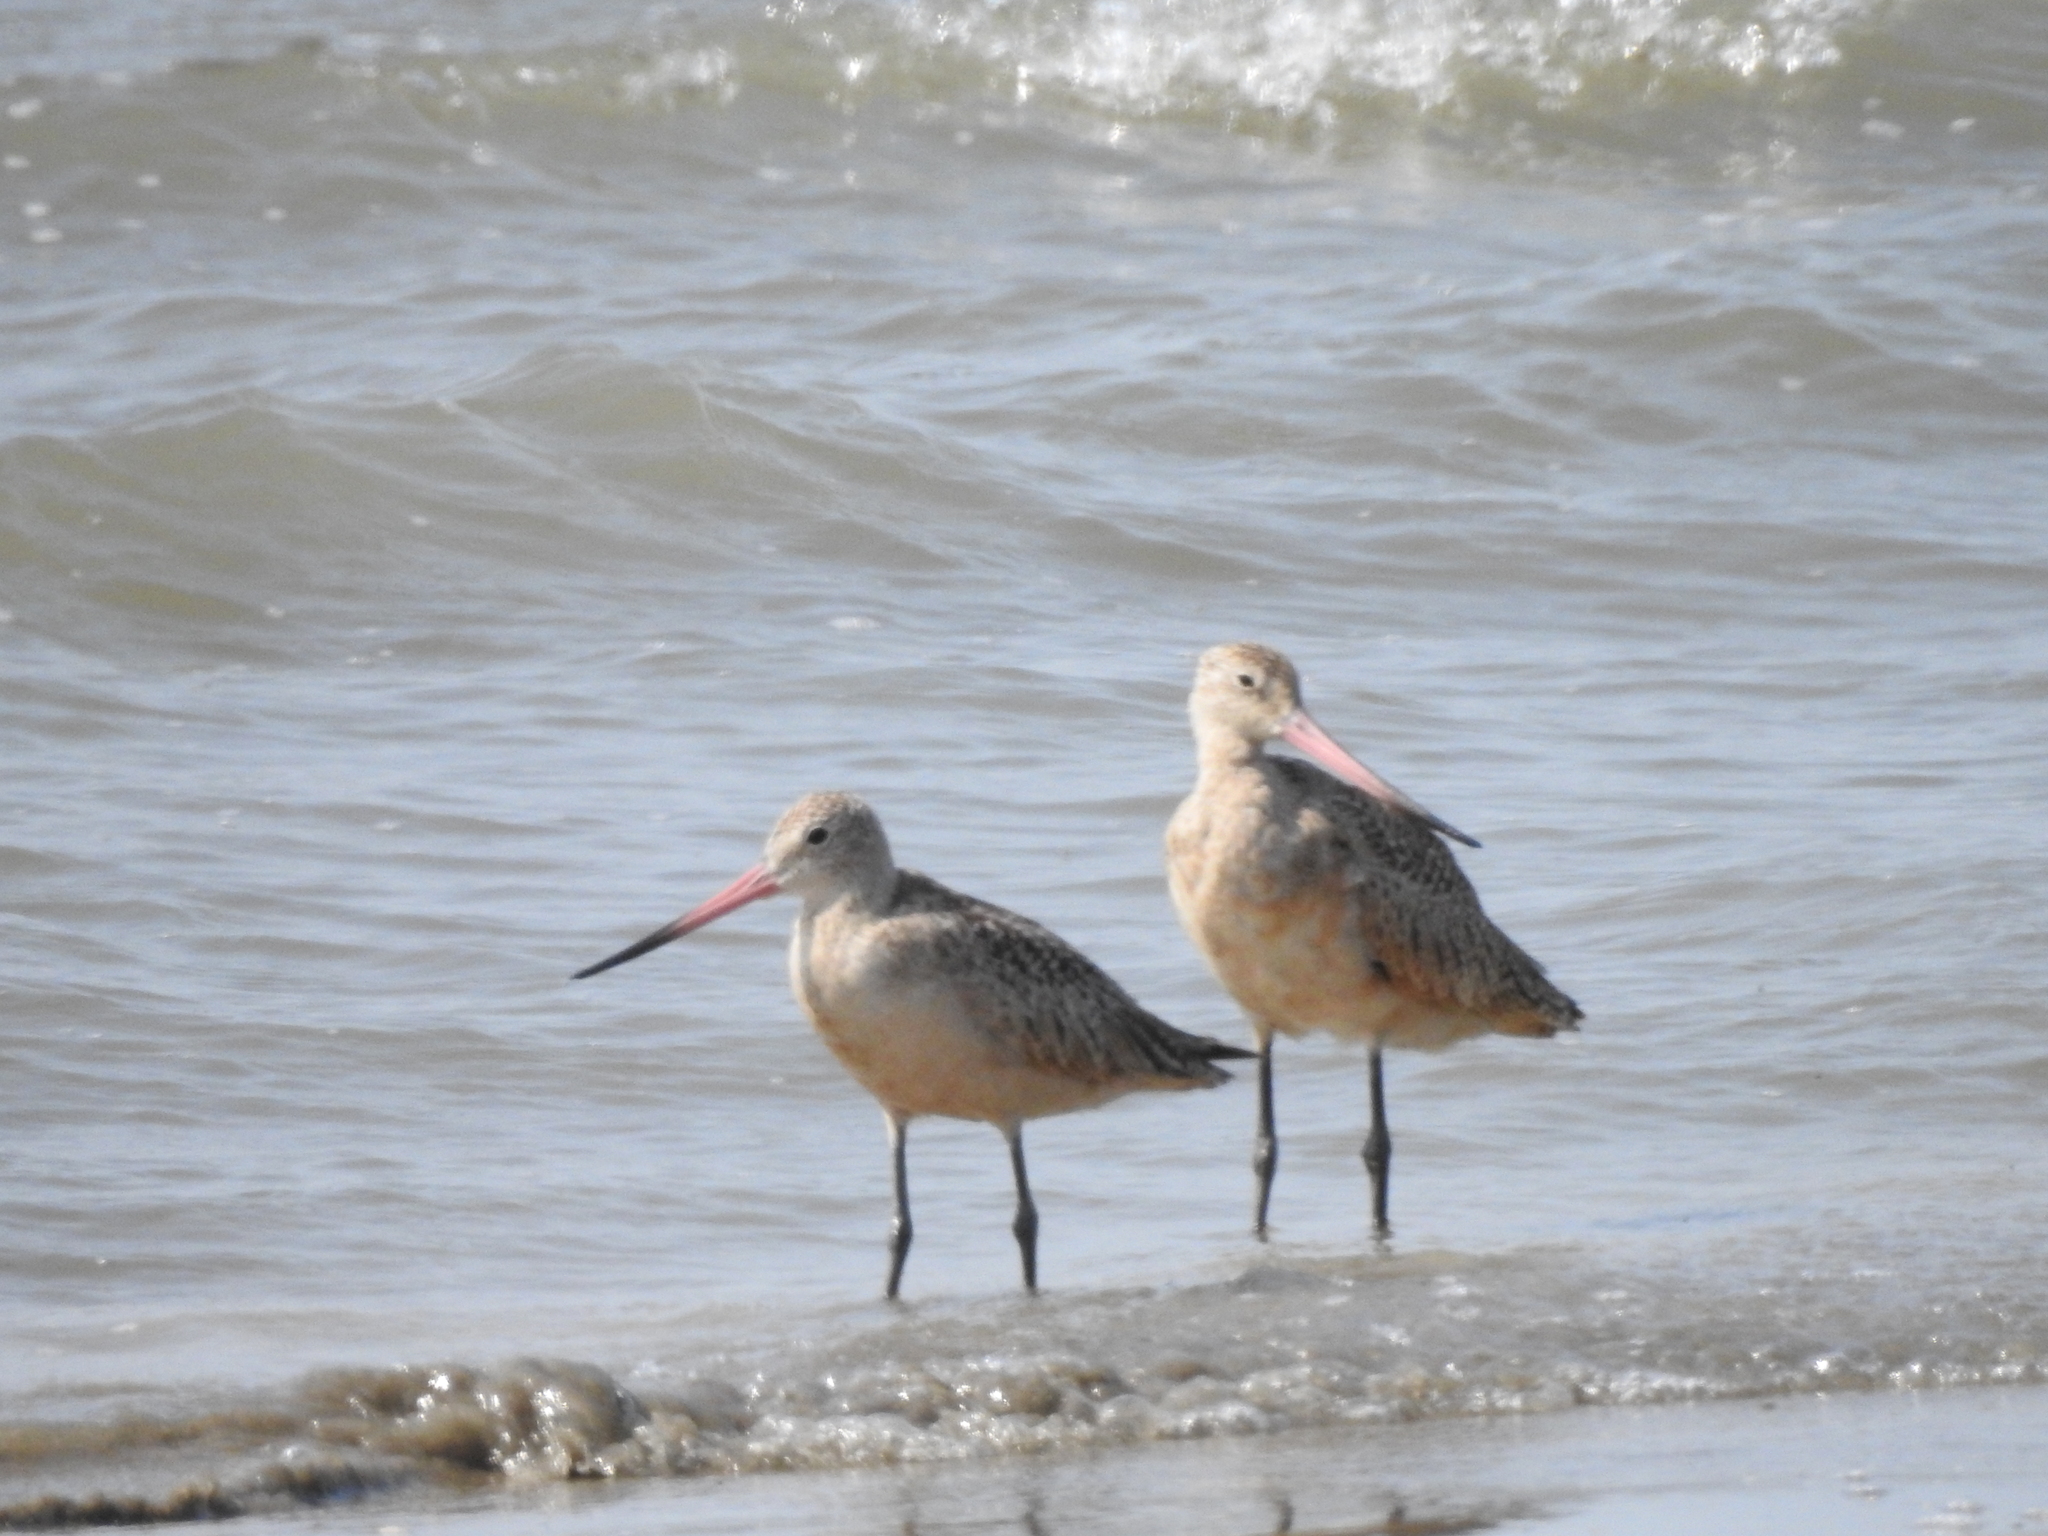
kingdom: Animalia
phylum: Chordata
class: Aves
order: Charadriiformes
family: Scolopacidae
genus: Limosa
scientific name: Limosa fedoa
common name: Marbled godwit
